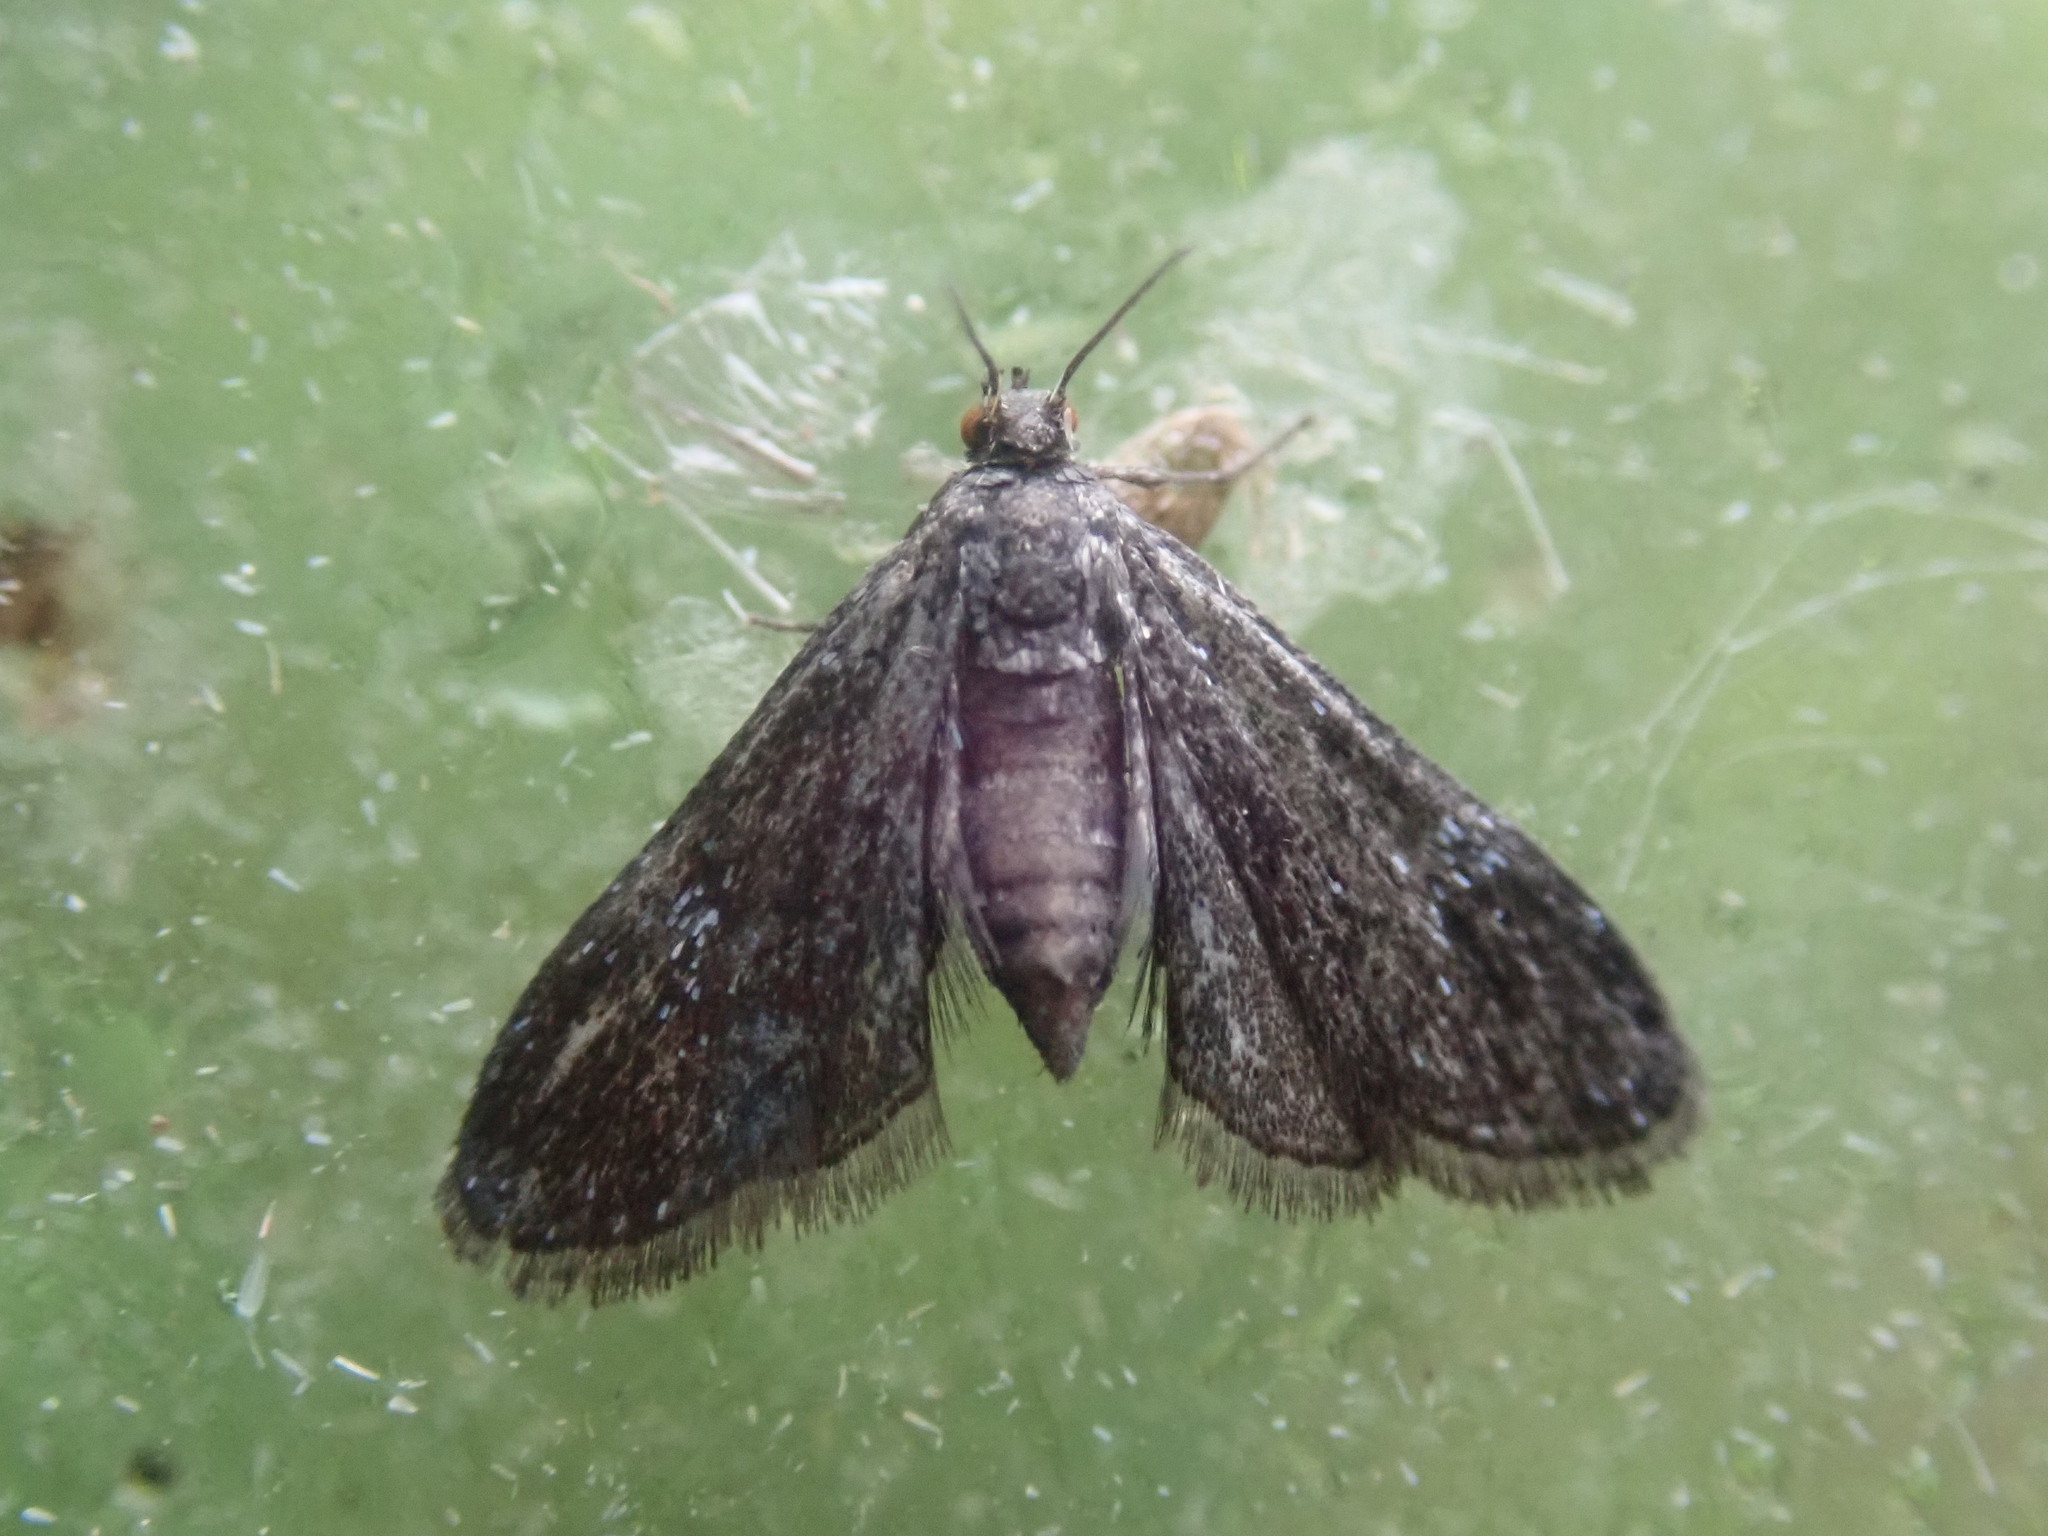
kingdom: Animalia
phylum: Arthropoda
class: Insecta
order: Lepidoptera
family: Crambidae
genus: Elophila
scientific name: Elophila tinealis
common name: Black duckweed moth
